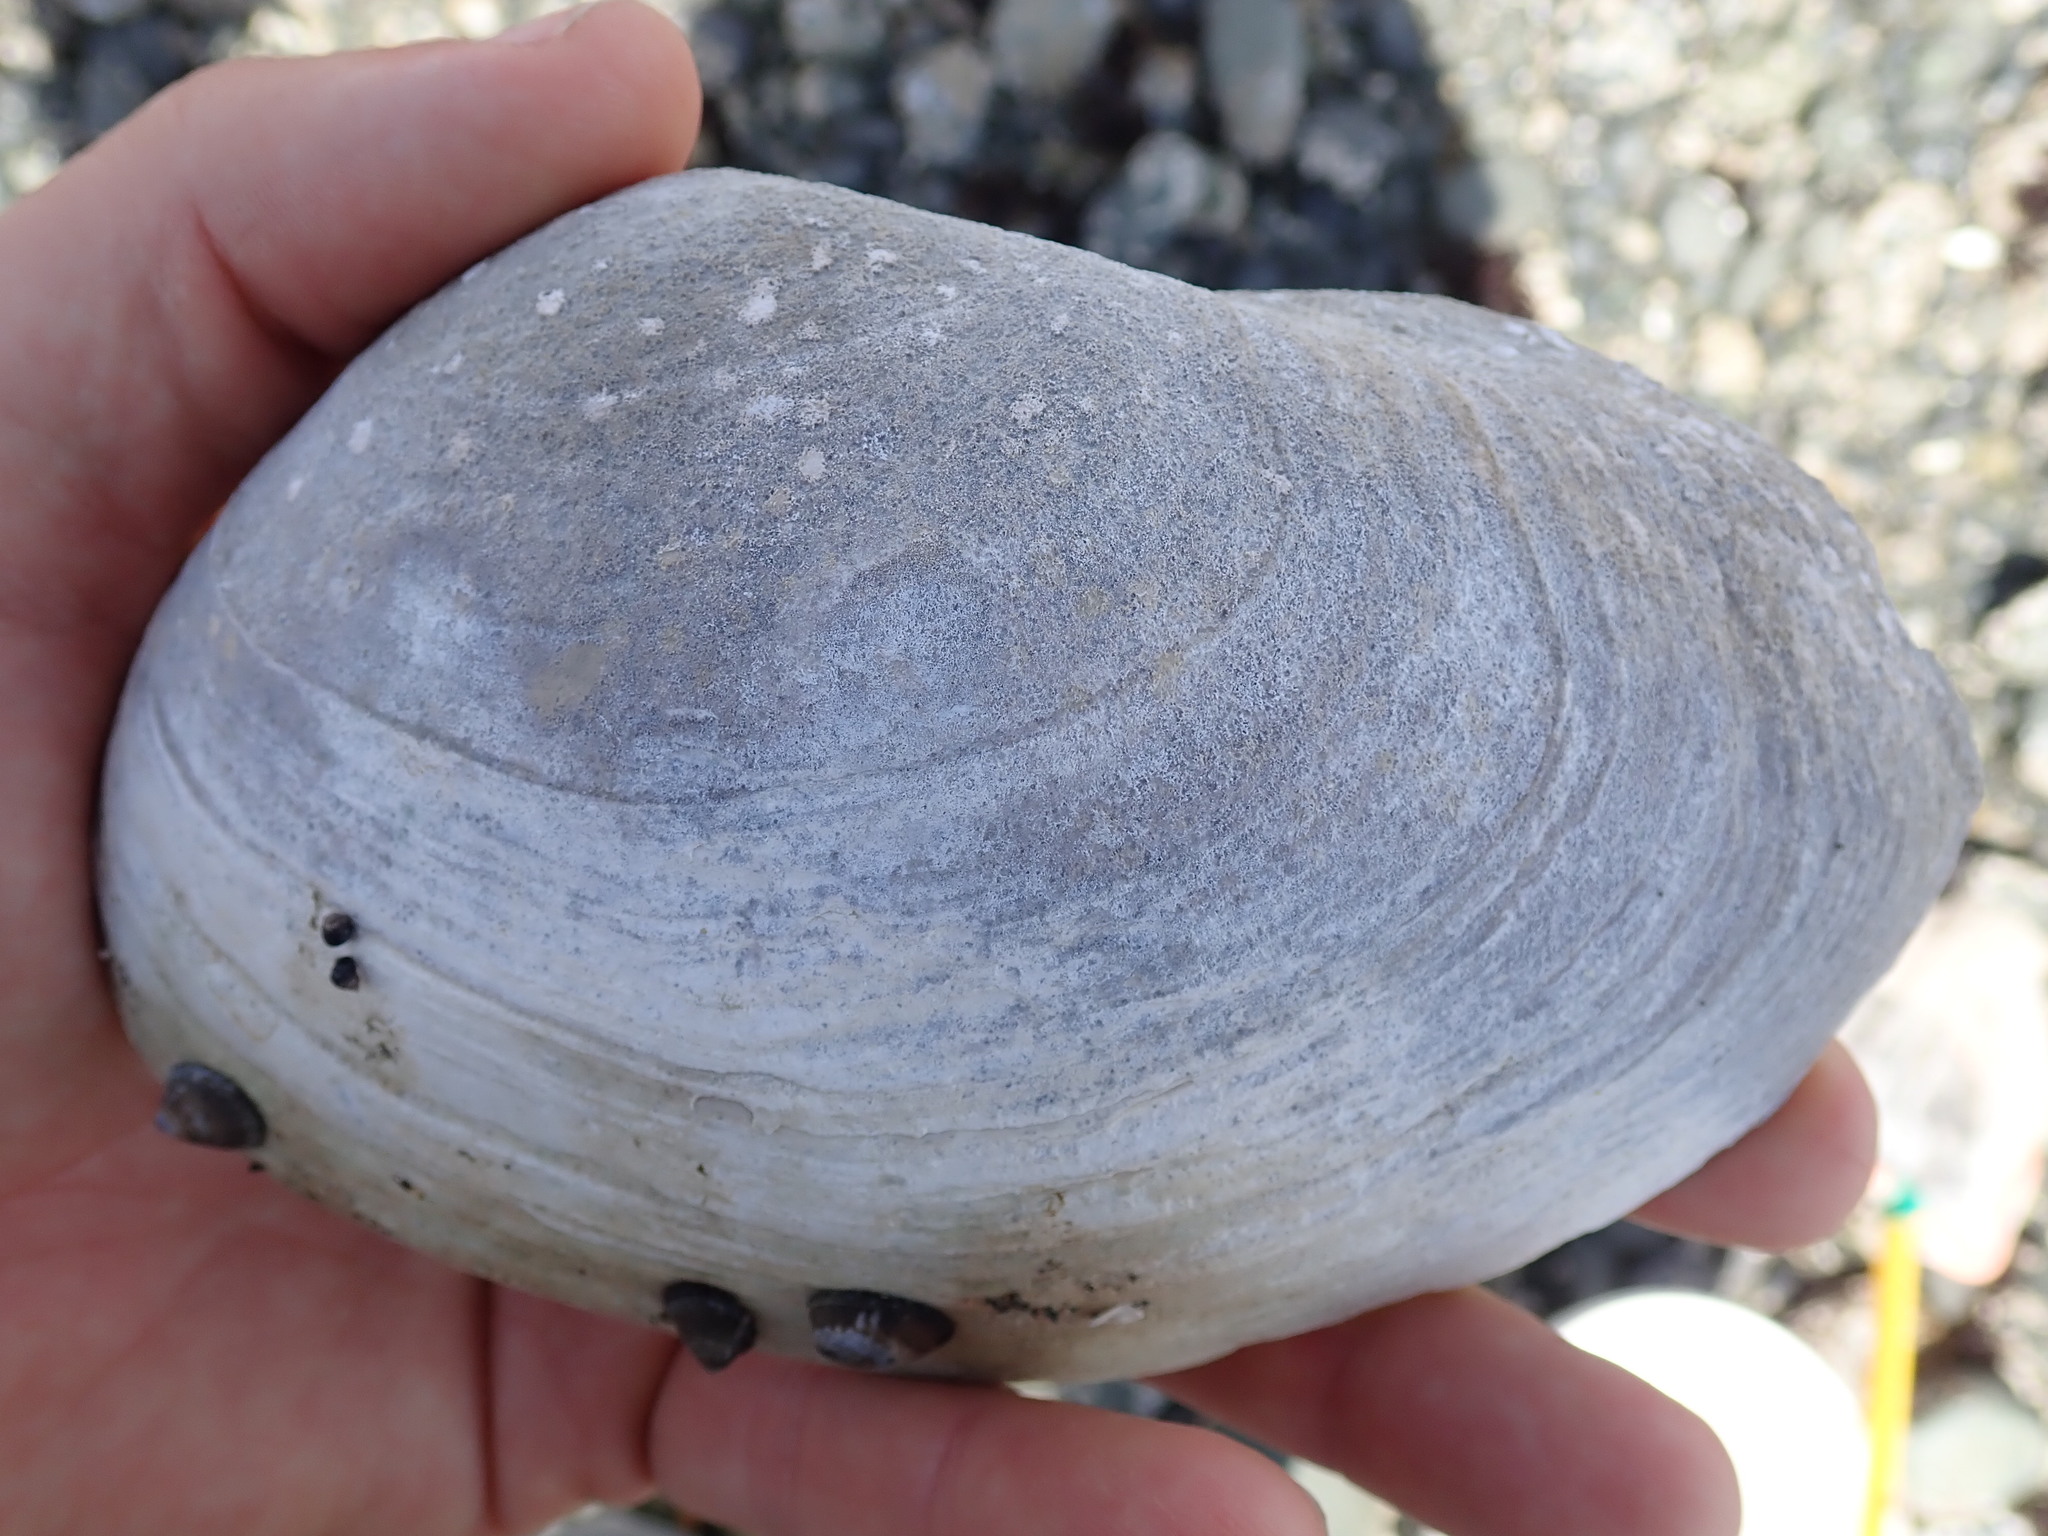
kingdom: Animalia
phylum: Mollusca
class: Bivalvia
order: Venerida
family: Mactridae
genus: Tresus
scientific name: Tresus nuttallii
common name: Pacific gaper clam
